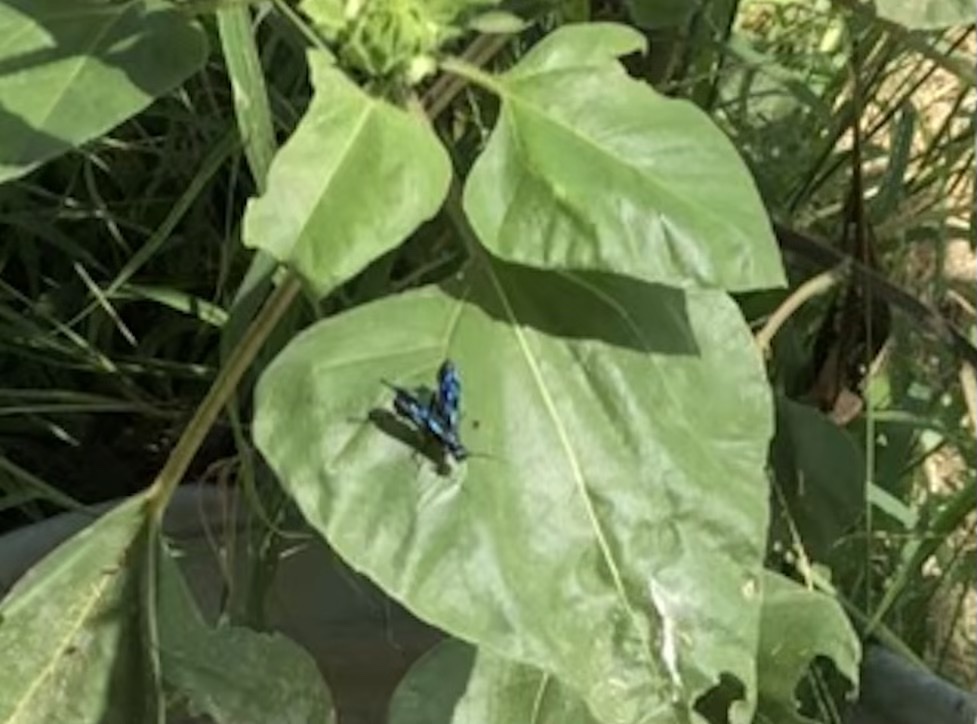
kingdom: Animalia
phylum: Arthropoda
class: Insecta
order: Hymenoptera
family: Sphecidae
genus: Chalybion
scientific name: Chalybion
